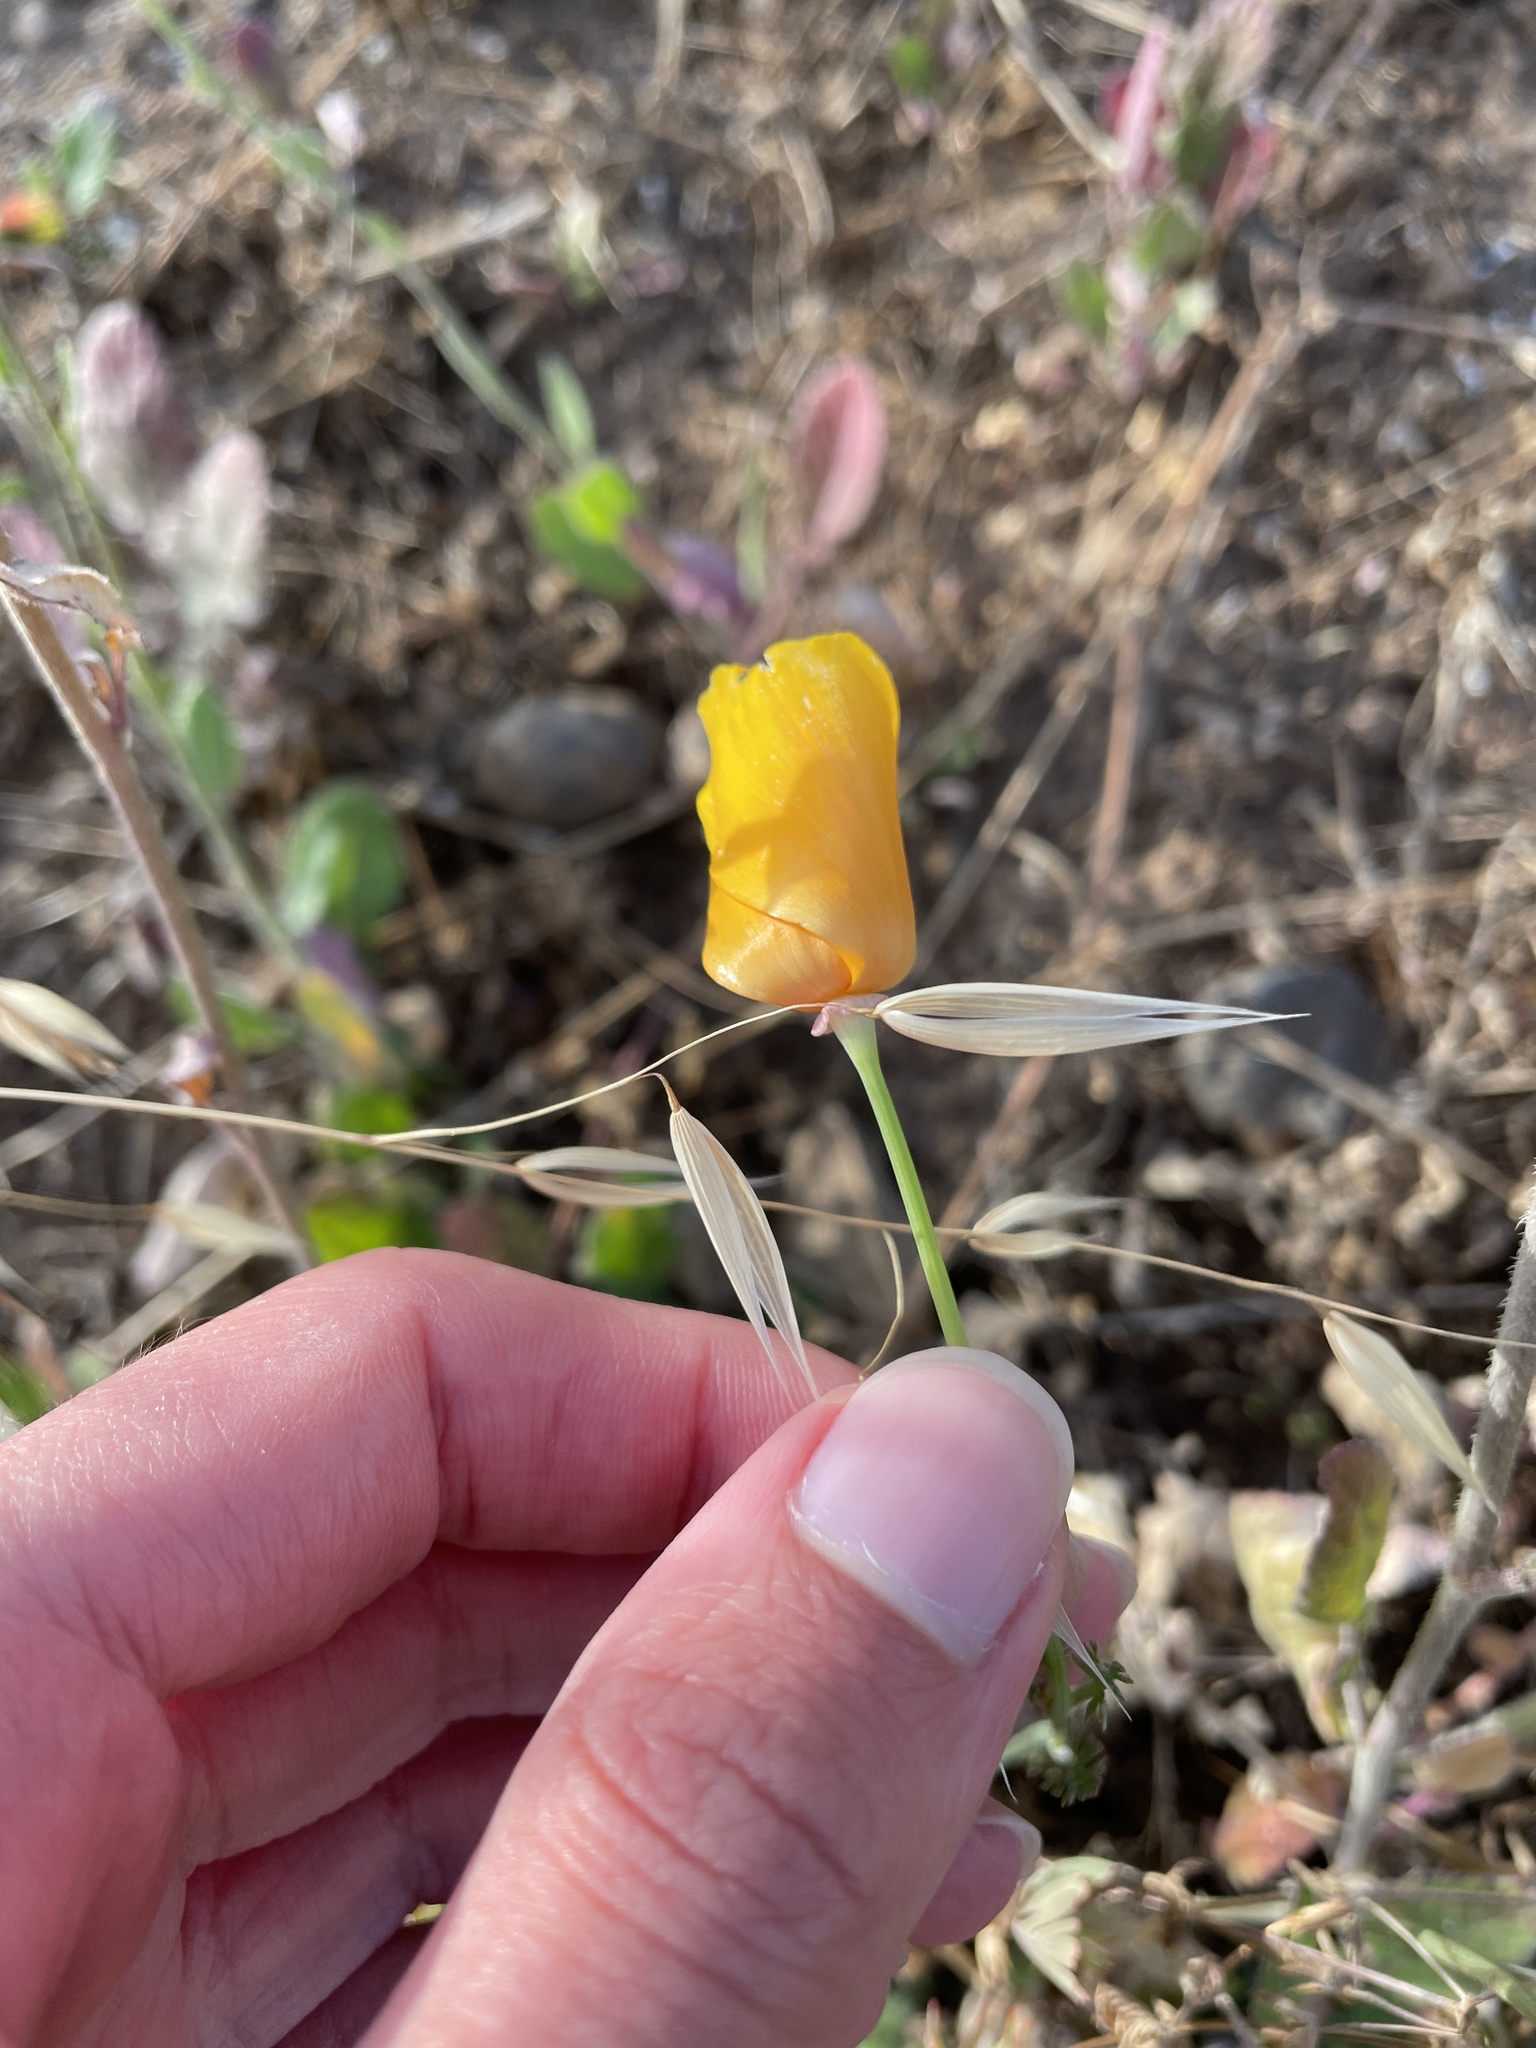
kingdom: Plantae
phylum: Tracheophyta
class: Magnoliopsida
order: Ranunculales
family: Papaveraceae
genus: Eschscholzia
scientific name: Eschscholzia californica
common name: California poppy
